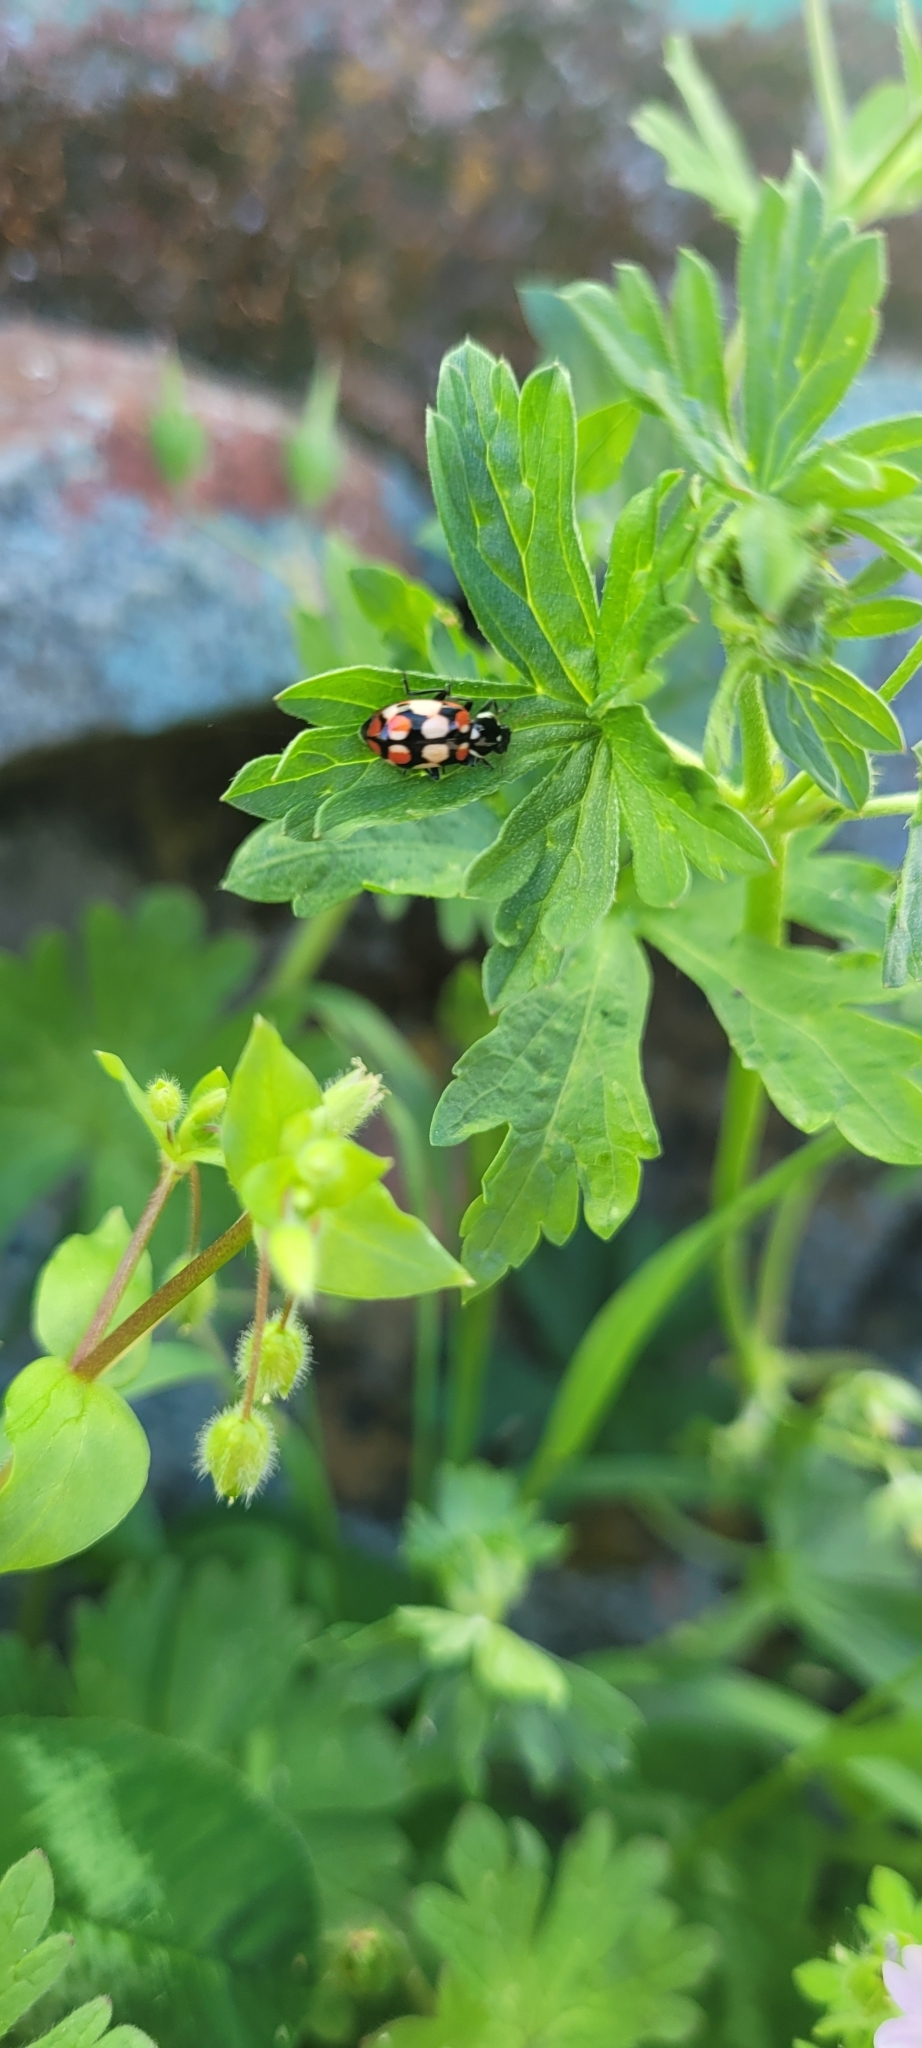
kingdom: Animalia
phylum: Arthropoda
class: Insecta
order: Coleoptera
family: Coccinellidae
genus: Eriopis
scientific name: Eriopis chilensis
